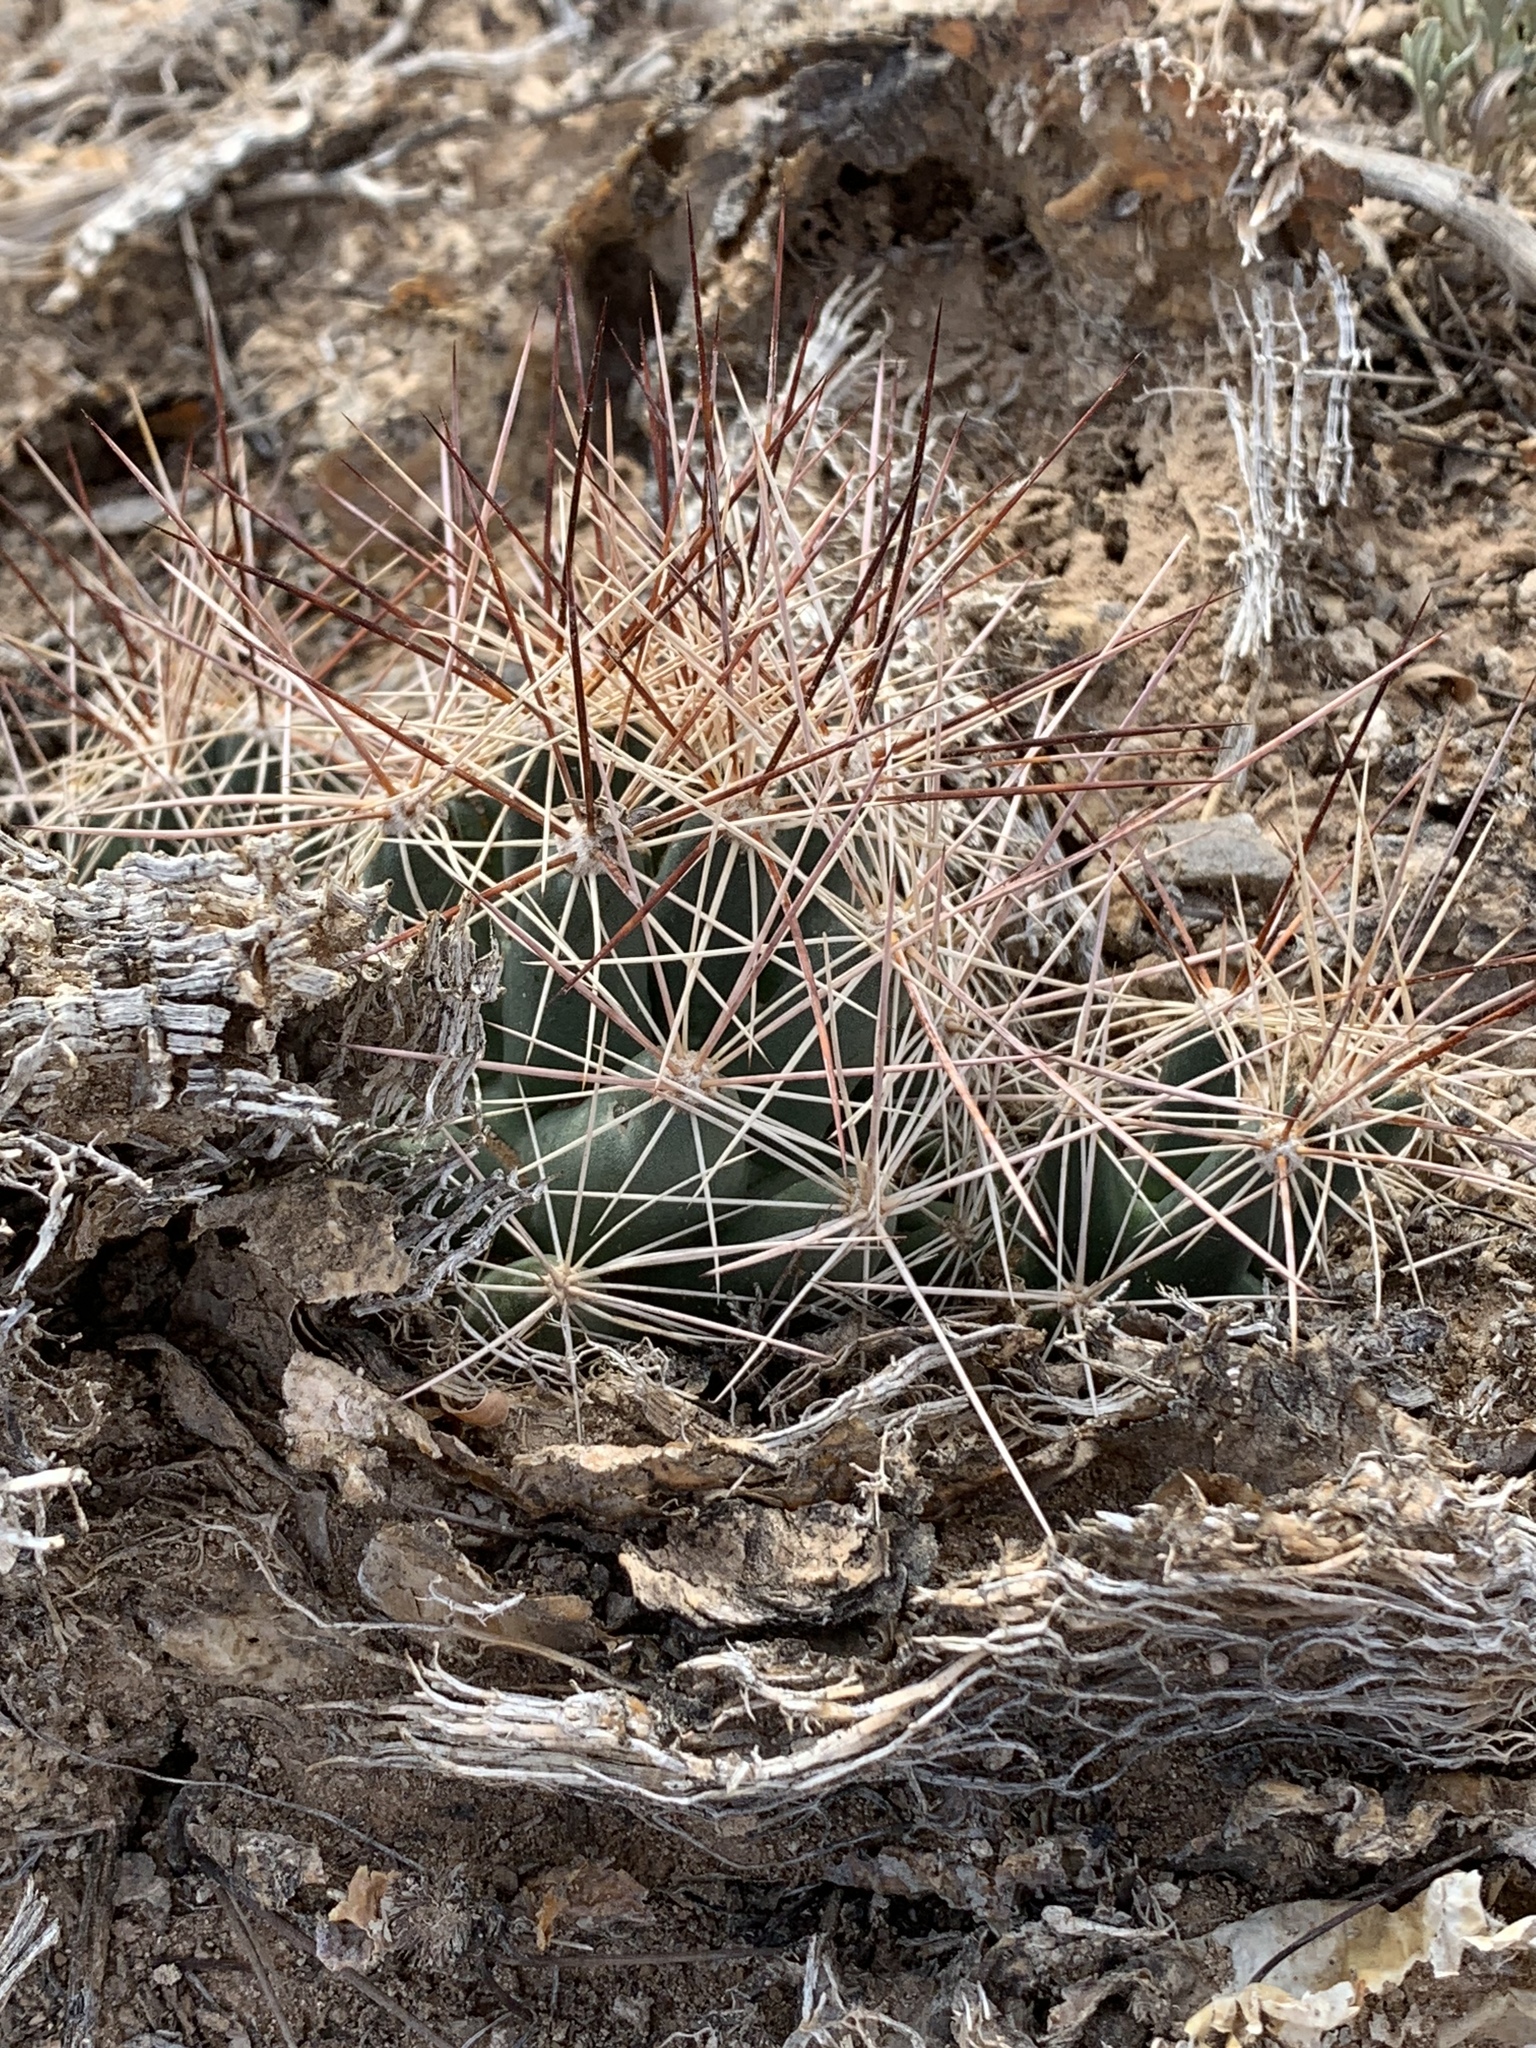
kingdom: Plantae
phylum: Tracheophyta
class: Magnoliopsida
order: Caryophyllales
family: Cactaceae
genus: Coryphantha
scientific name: Coryphantha macromeris
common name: Nipple beehive cactus
